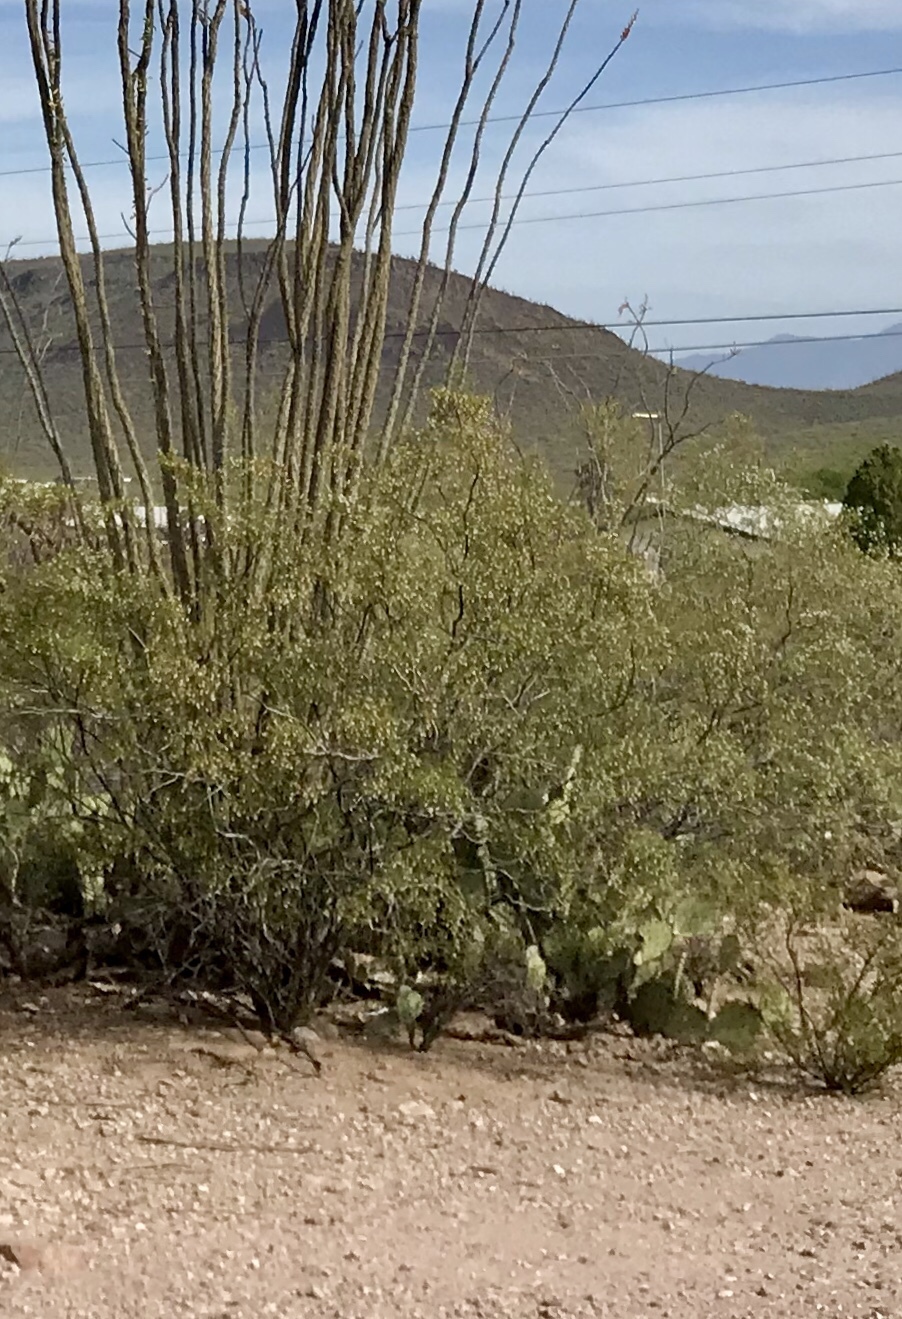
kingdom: Plantae
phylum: Tracheophyta
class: Magnoliopsida
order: Zygophyllales
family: Zygophyllaceae
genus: Larrea
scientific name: Larrea tridentata
